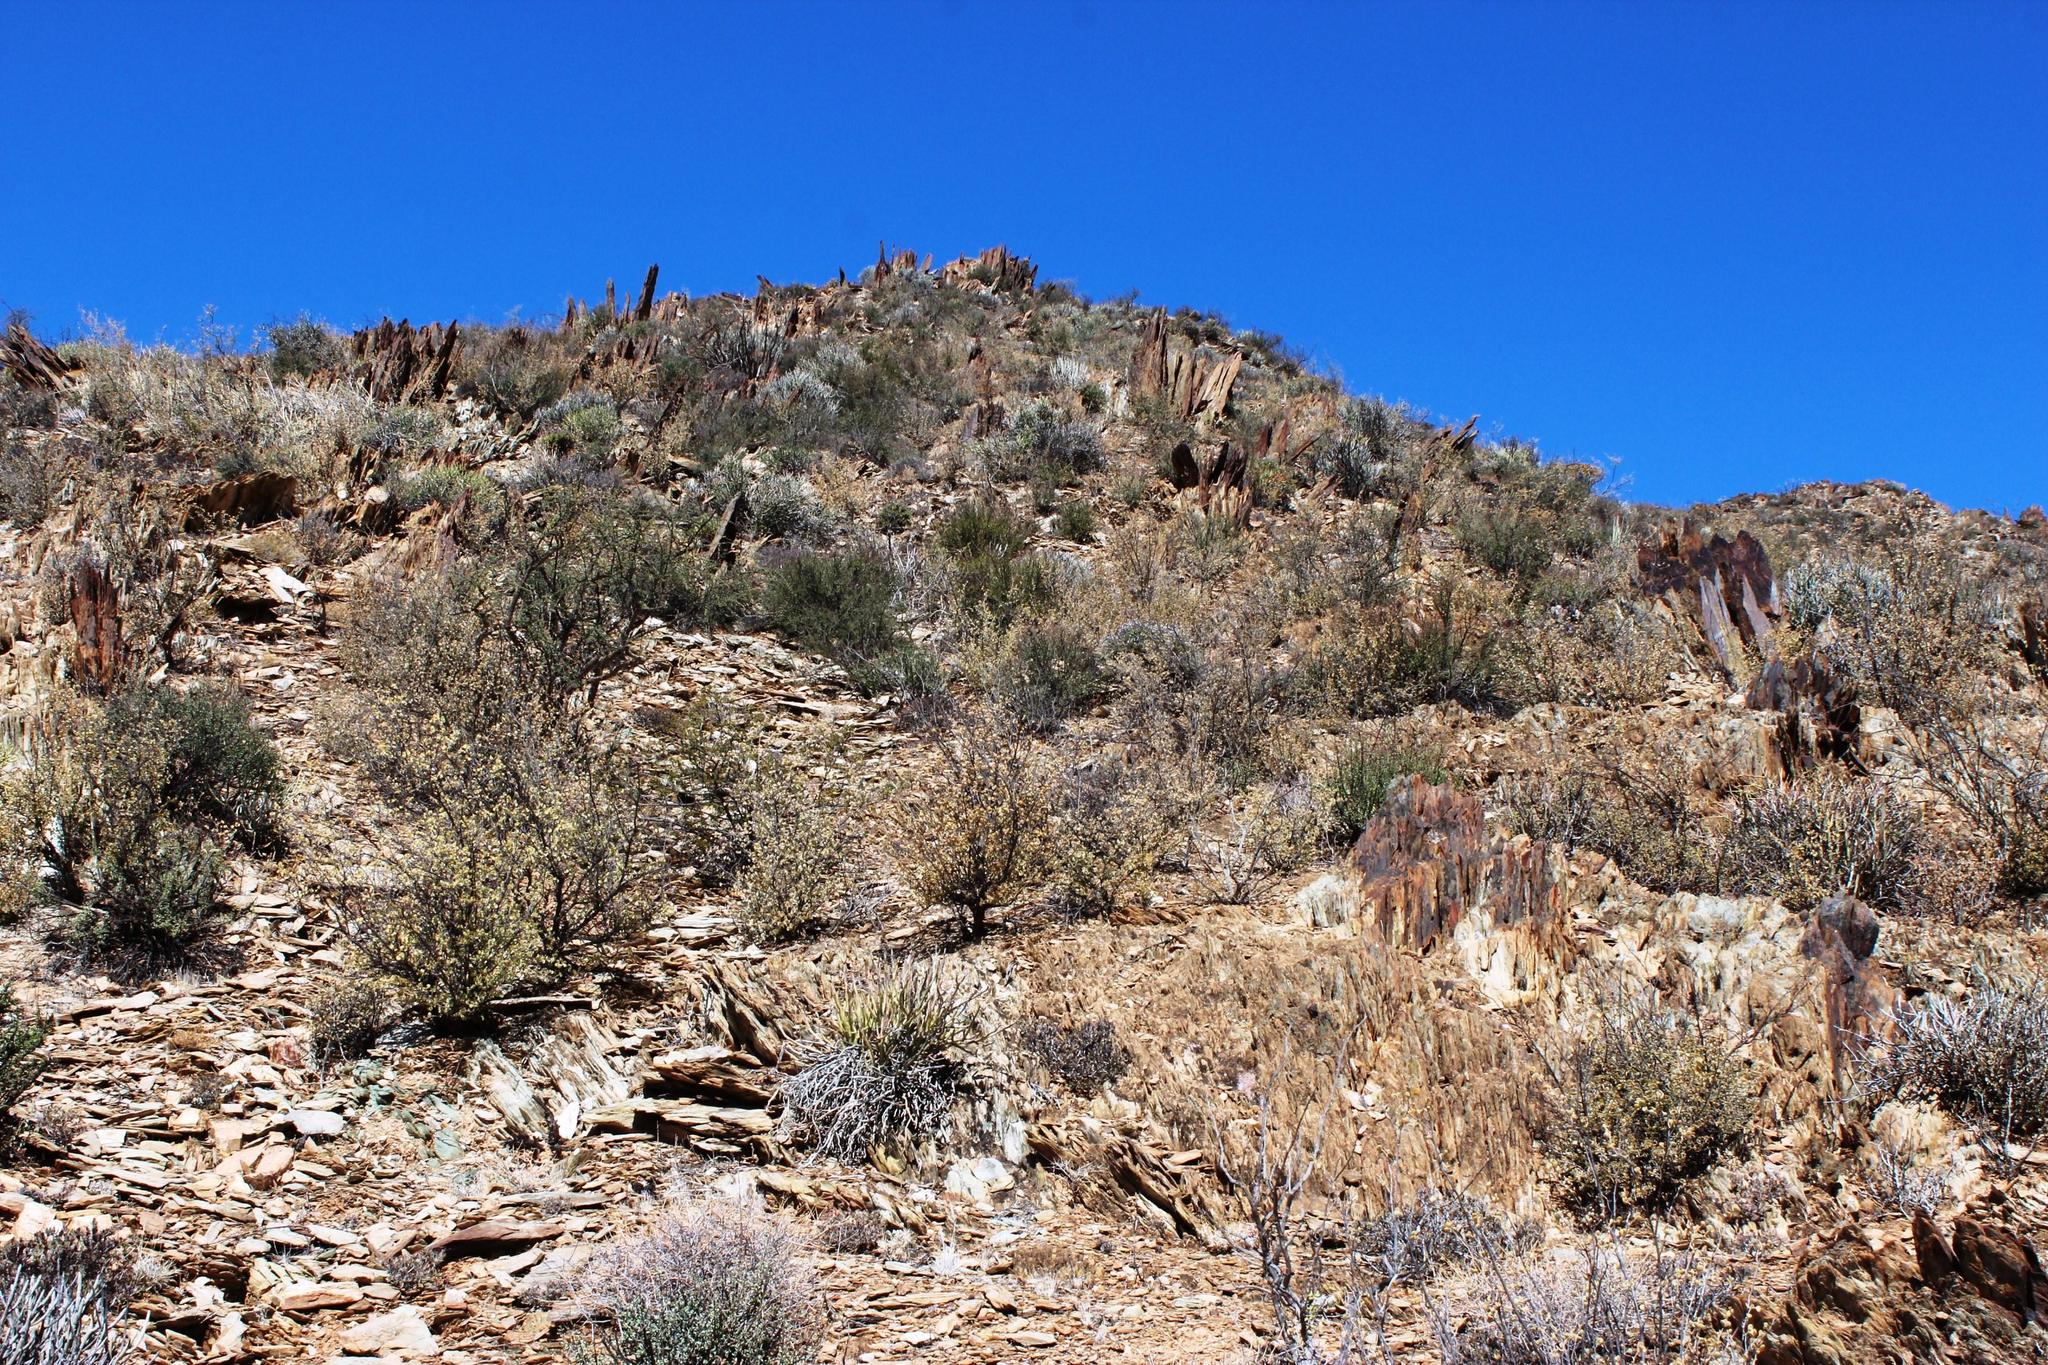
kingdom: Plantae
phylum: Tracheophyta
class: Magnoliopsida
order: Zygophyllales
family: Zygophyllaceae
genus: Tetraena
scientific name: Tetraena prismatocarpa
